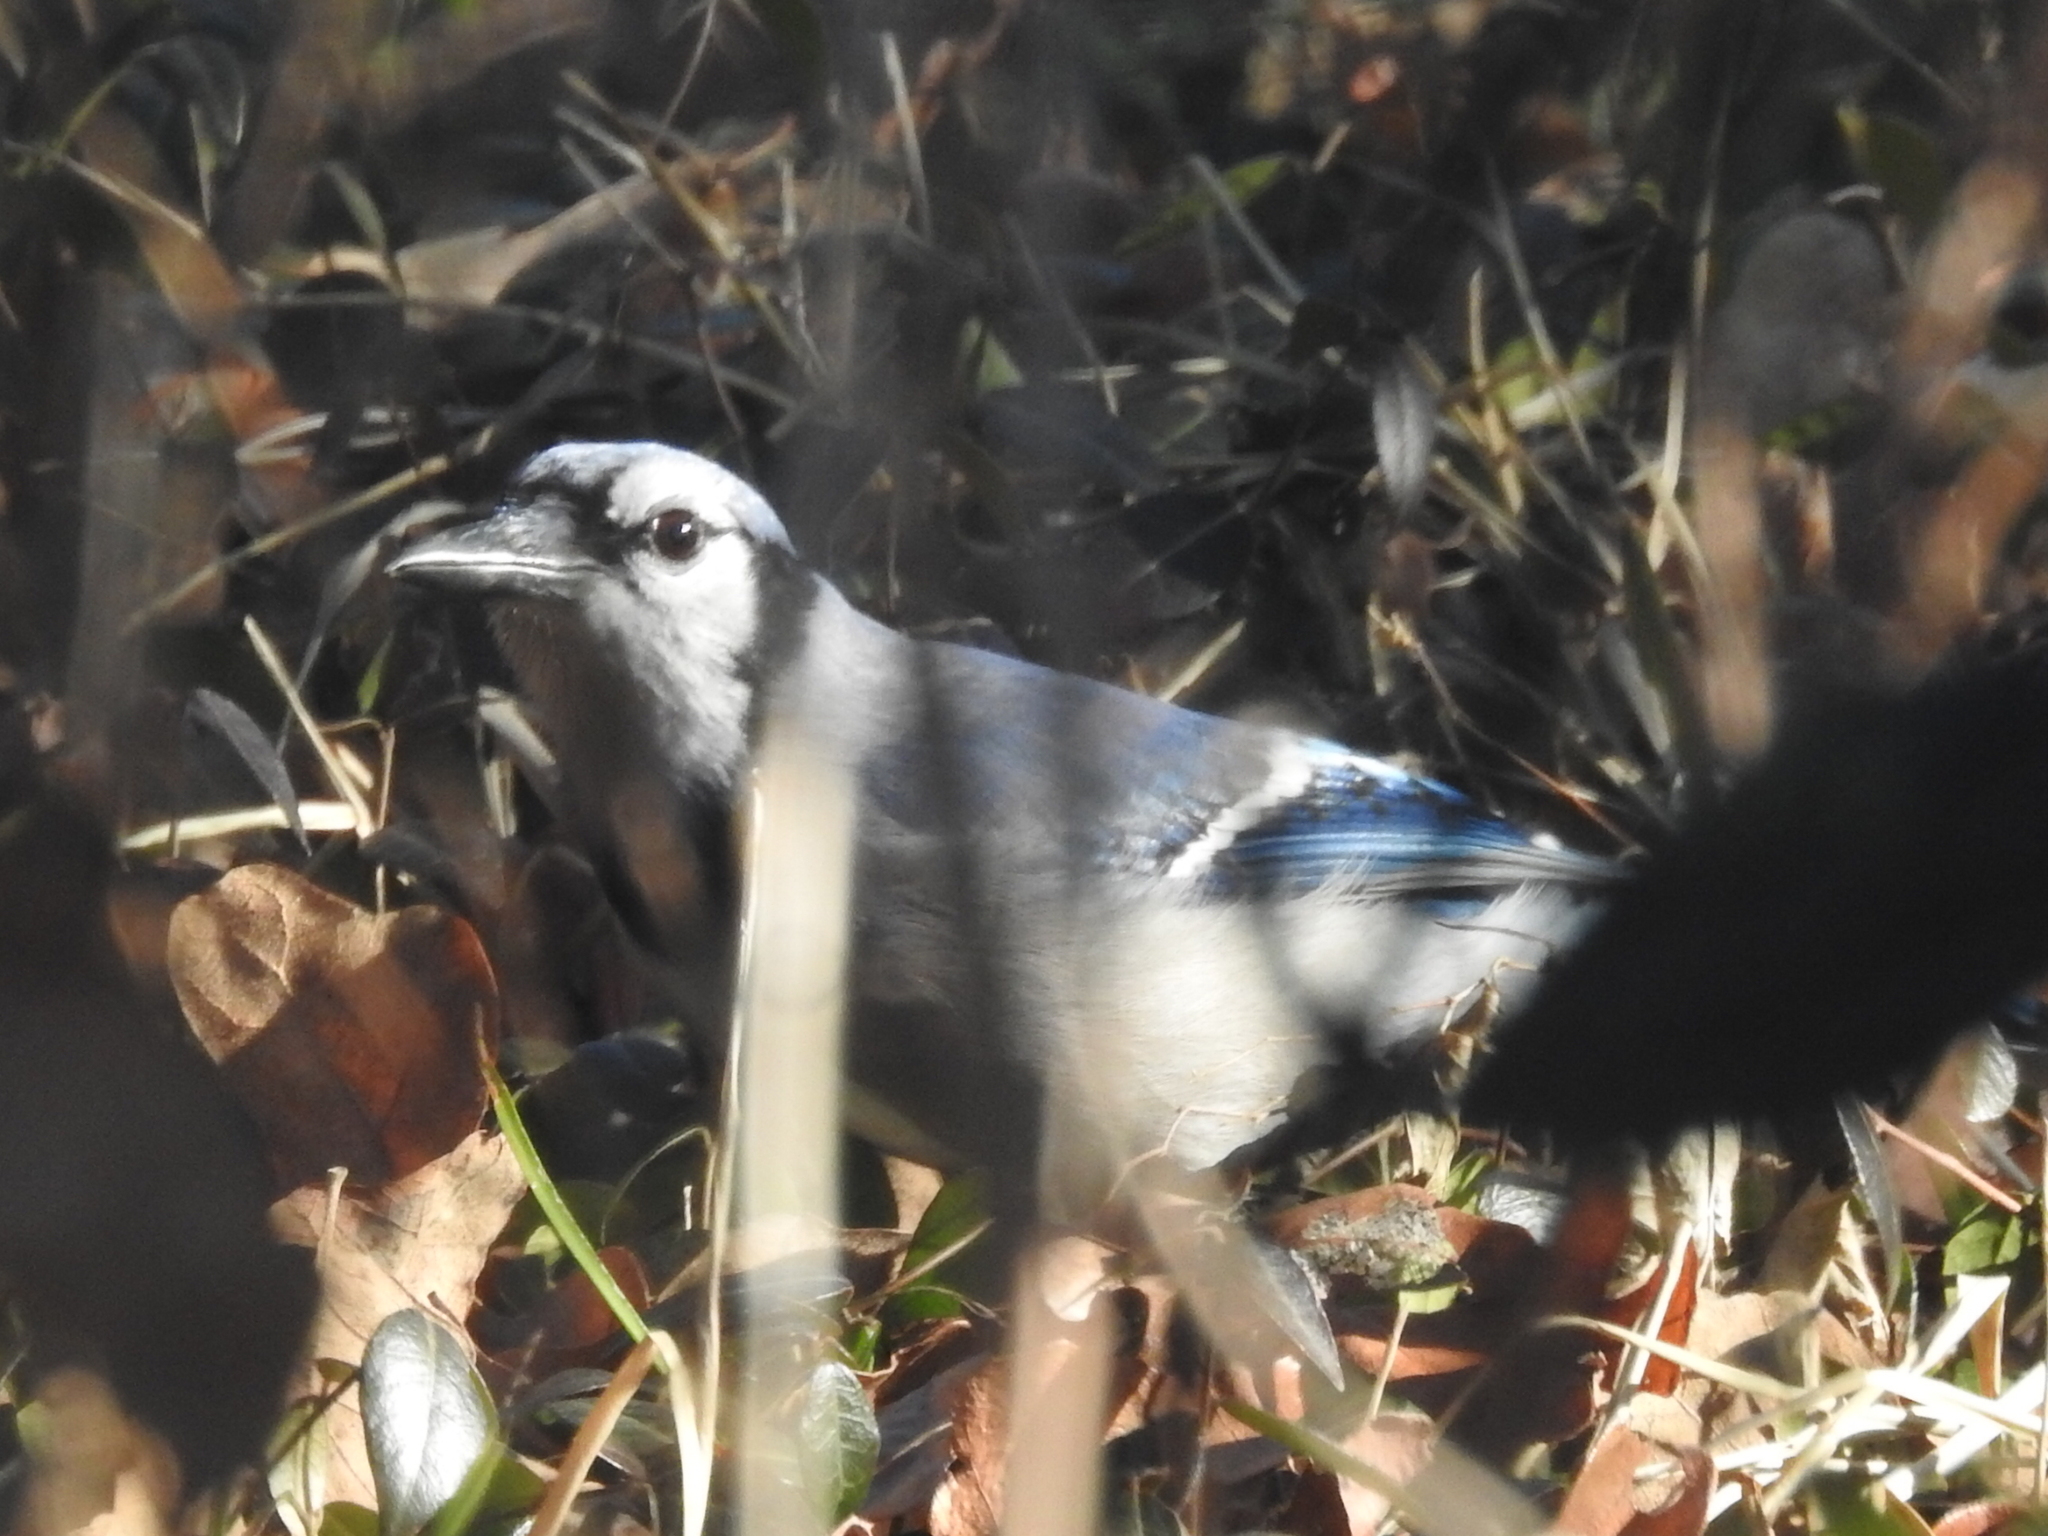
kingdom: Animalia
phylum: Chordata
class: Aves
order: Passeriformes
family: Corvidae
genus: Cyanocitta
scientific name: Cyanocitta cristata
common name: Blue jay
